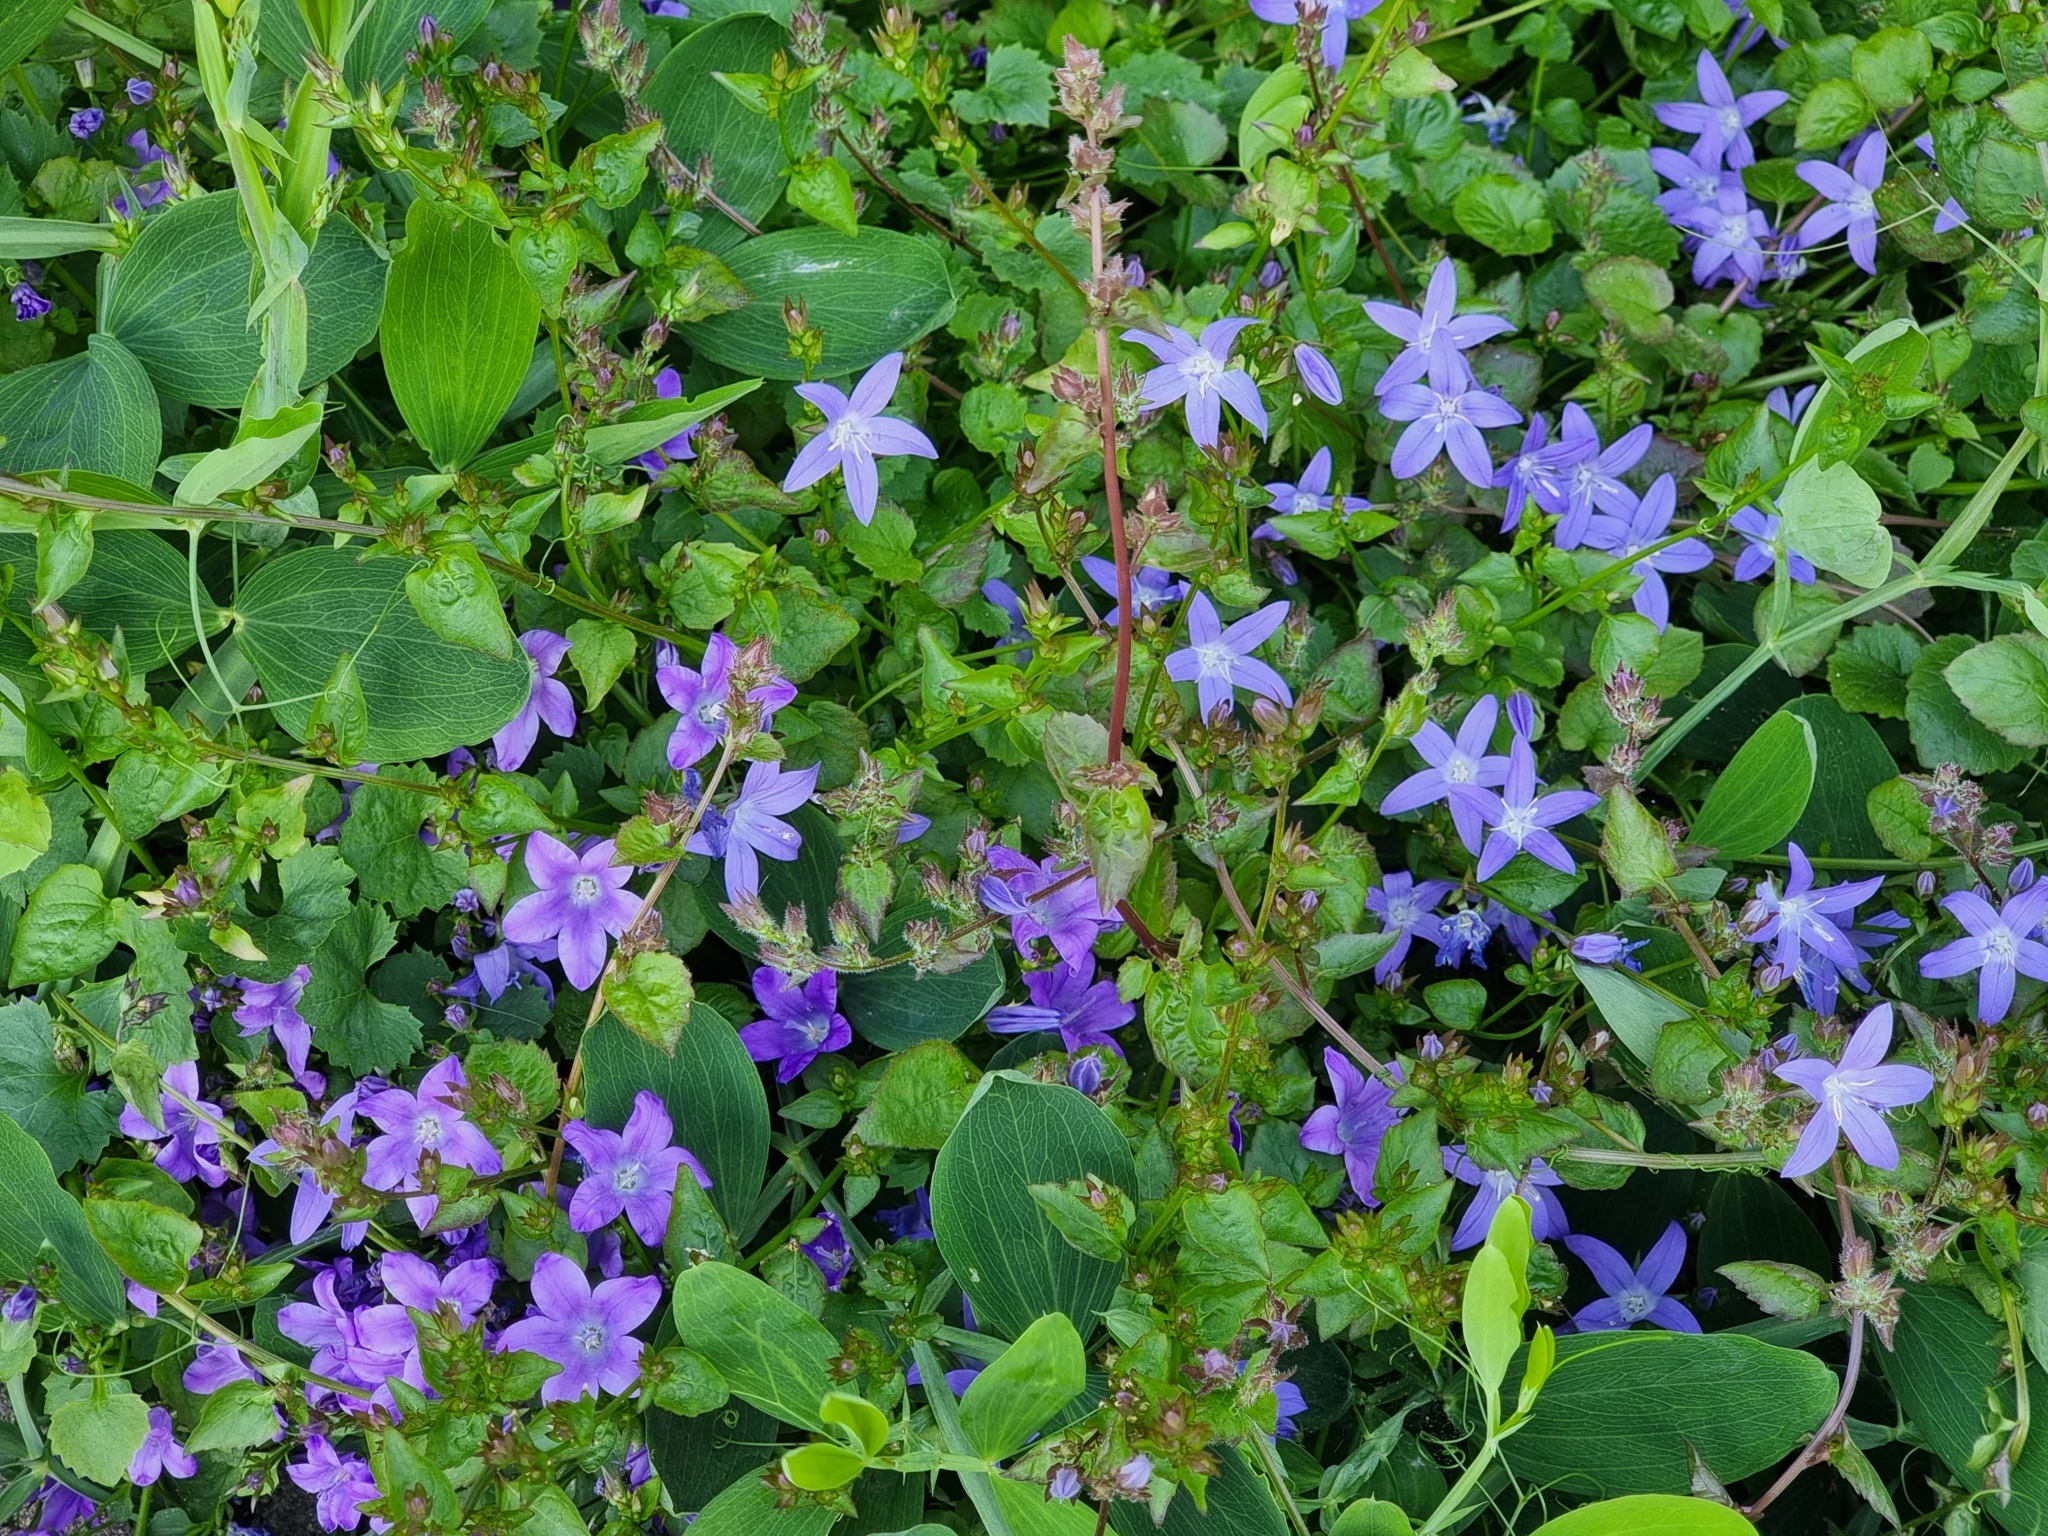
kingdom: Plantae
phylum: Tracheophyta
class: Magnoliopsida
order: Asterales
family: Campanulaceae
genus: Campanula
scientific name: Campanula portenschlagiana
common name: Adria bellflower
